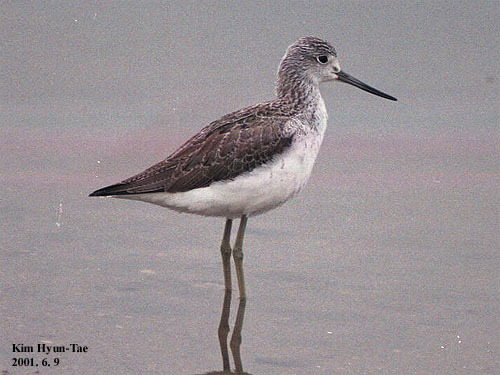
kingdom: Animalia
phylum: Chordata
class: Aves
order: Charadriiformes
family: Scolopacidae
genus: Tringa
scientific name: Tringa nebularia
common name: Common greenshank
